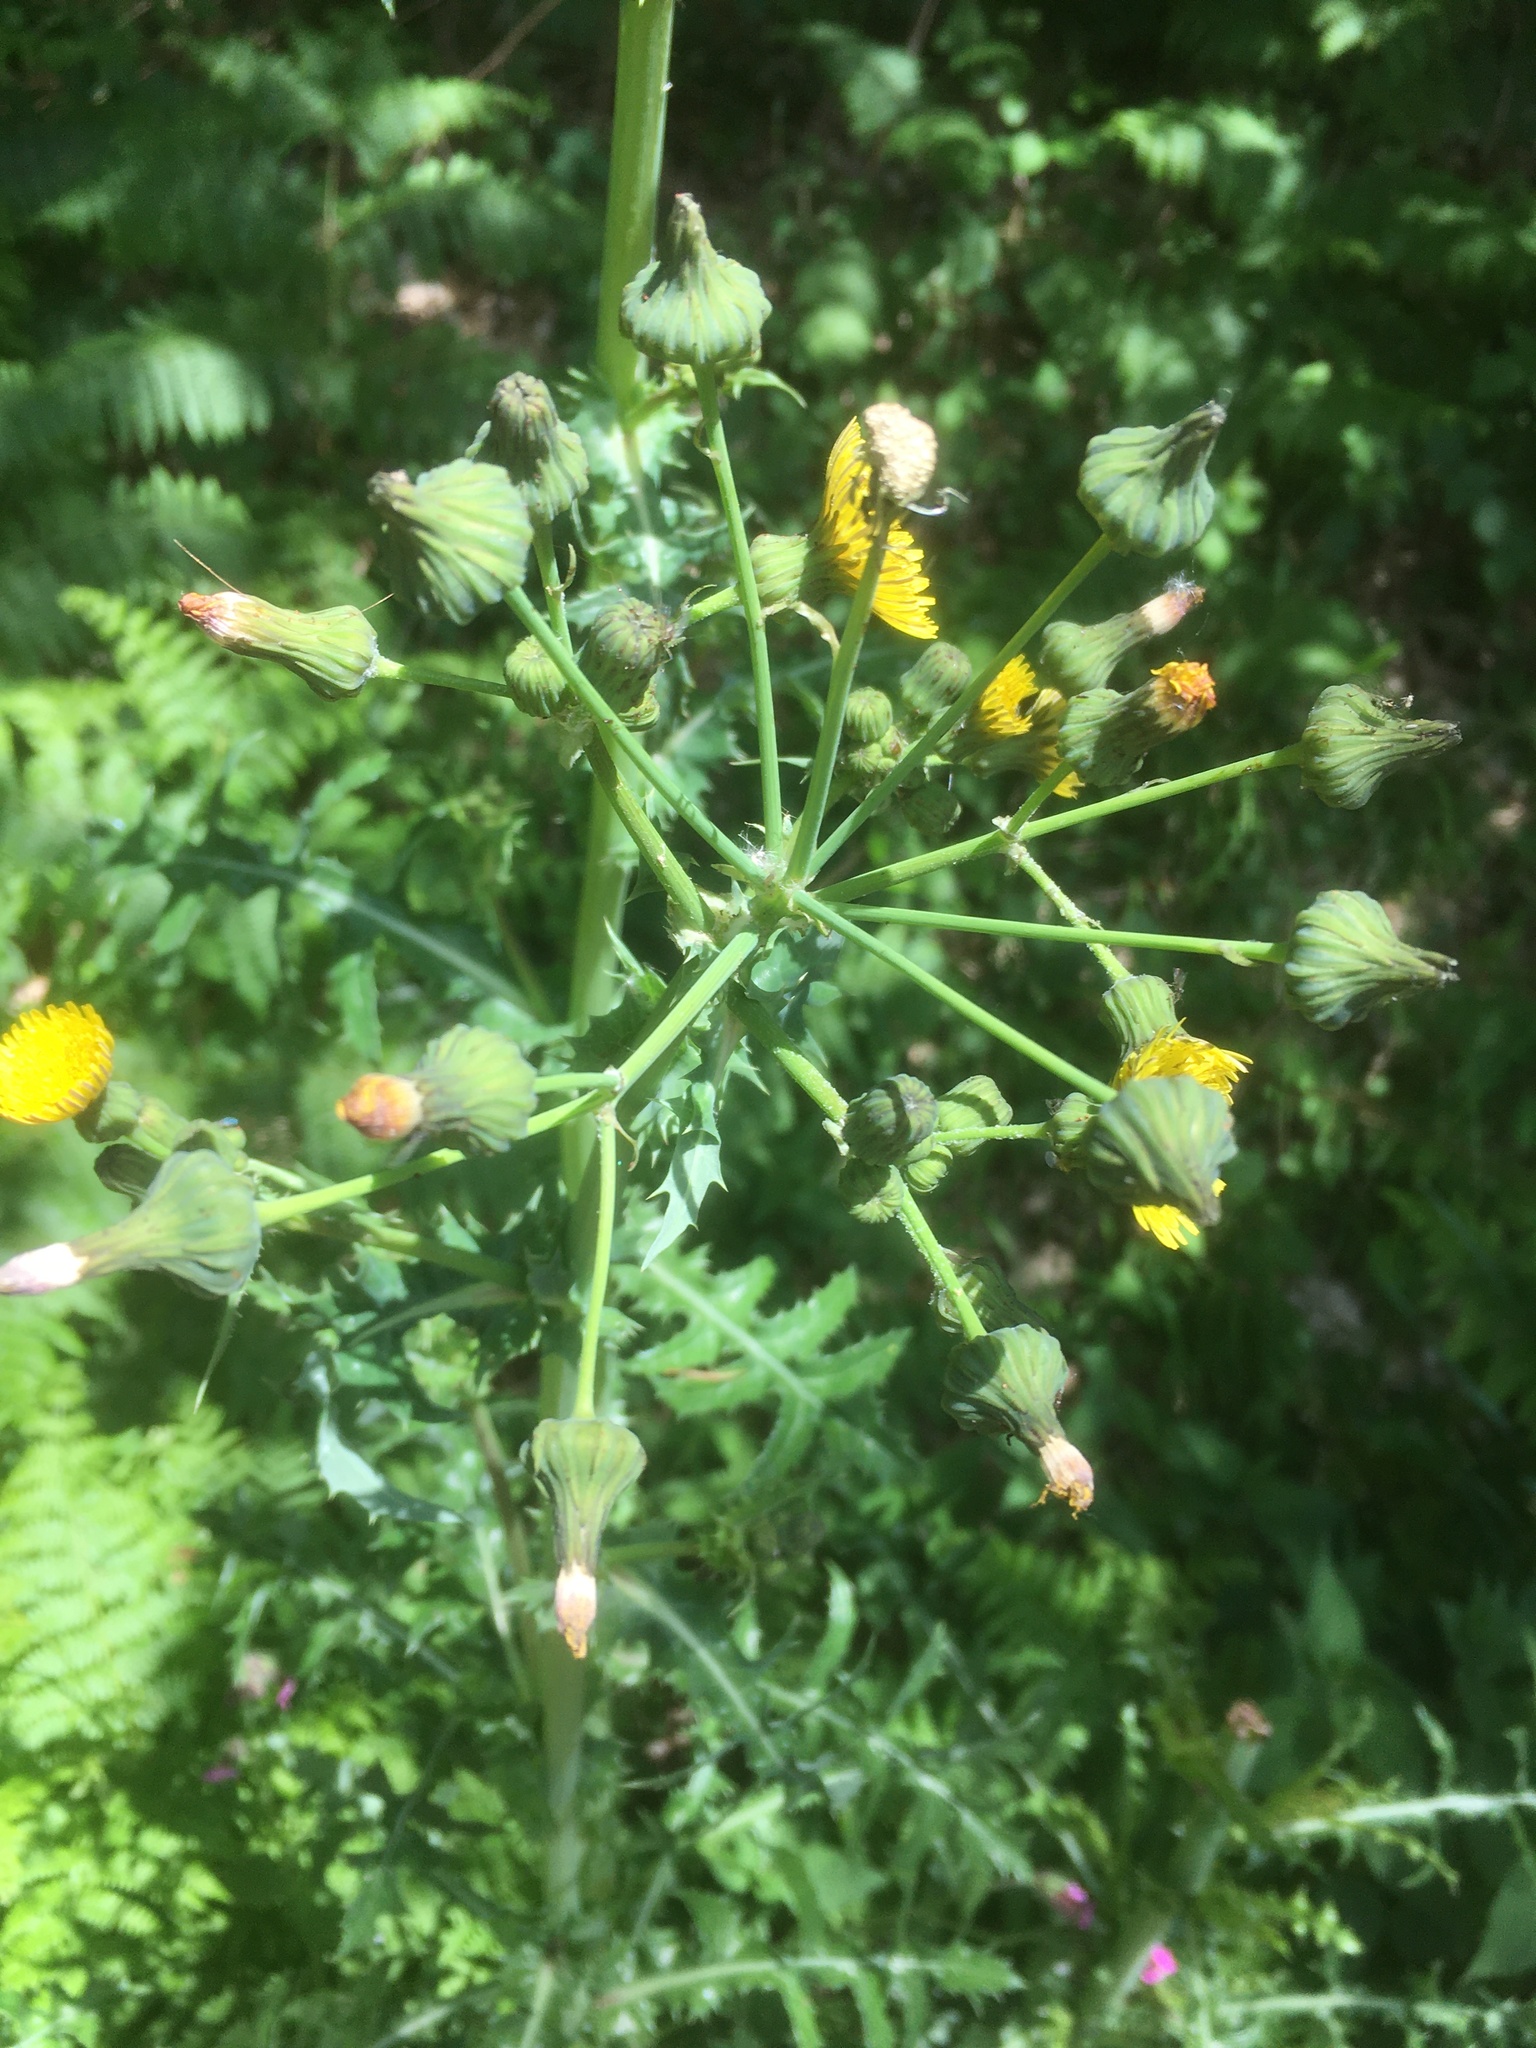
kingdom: Plantae
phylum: Tracheophyta
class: Magnoliopsida
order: Asterales
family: Asteraceae
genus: Sonchus
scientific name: Sonchus asper
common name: Prickly sow-thistle
